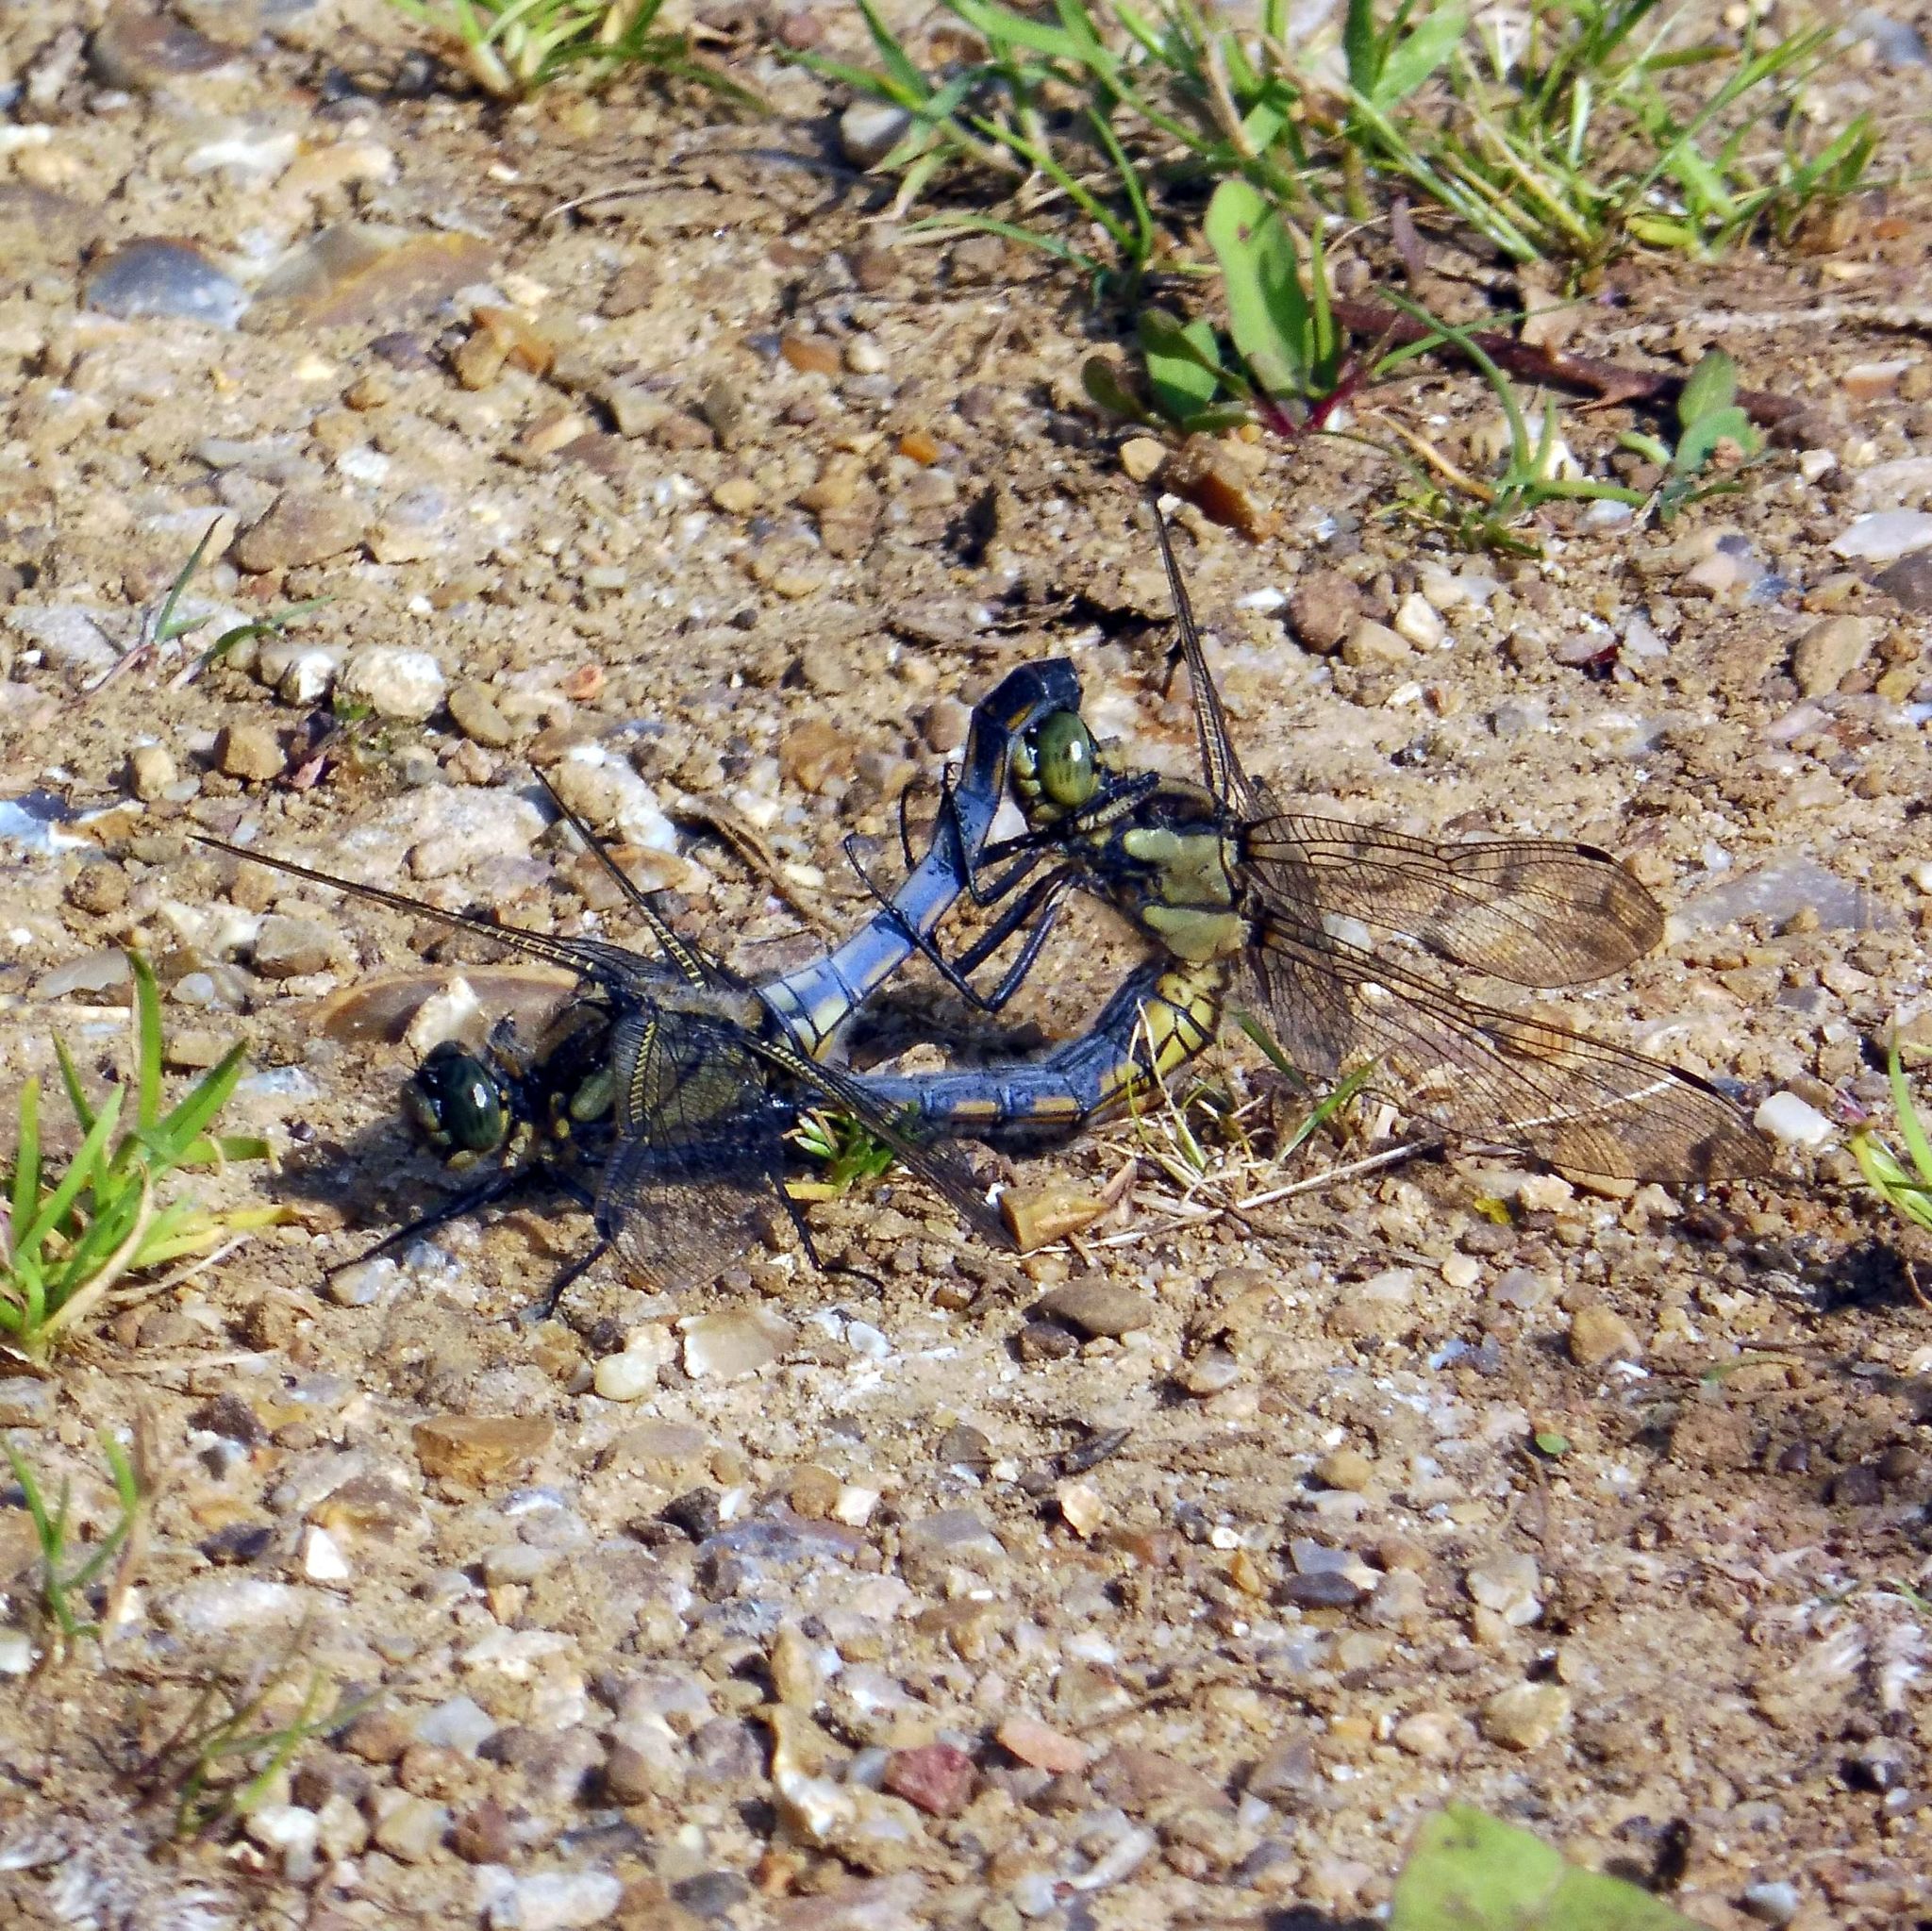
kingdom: Animalia
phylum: Arthropoda
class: Insecta
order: Odonata
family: Libellulidae
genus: Orthetrum
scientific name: Orthetrum cancellatum
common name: Black-tailed skimmer
